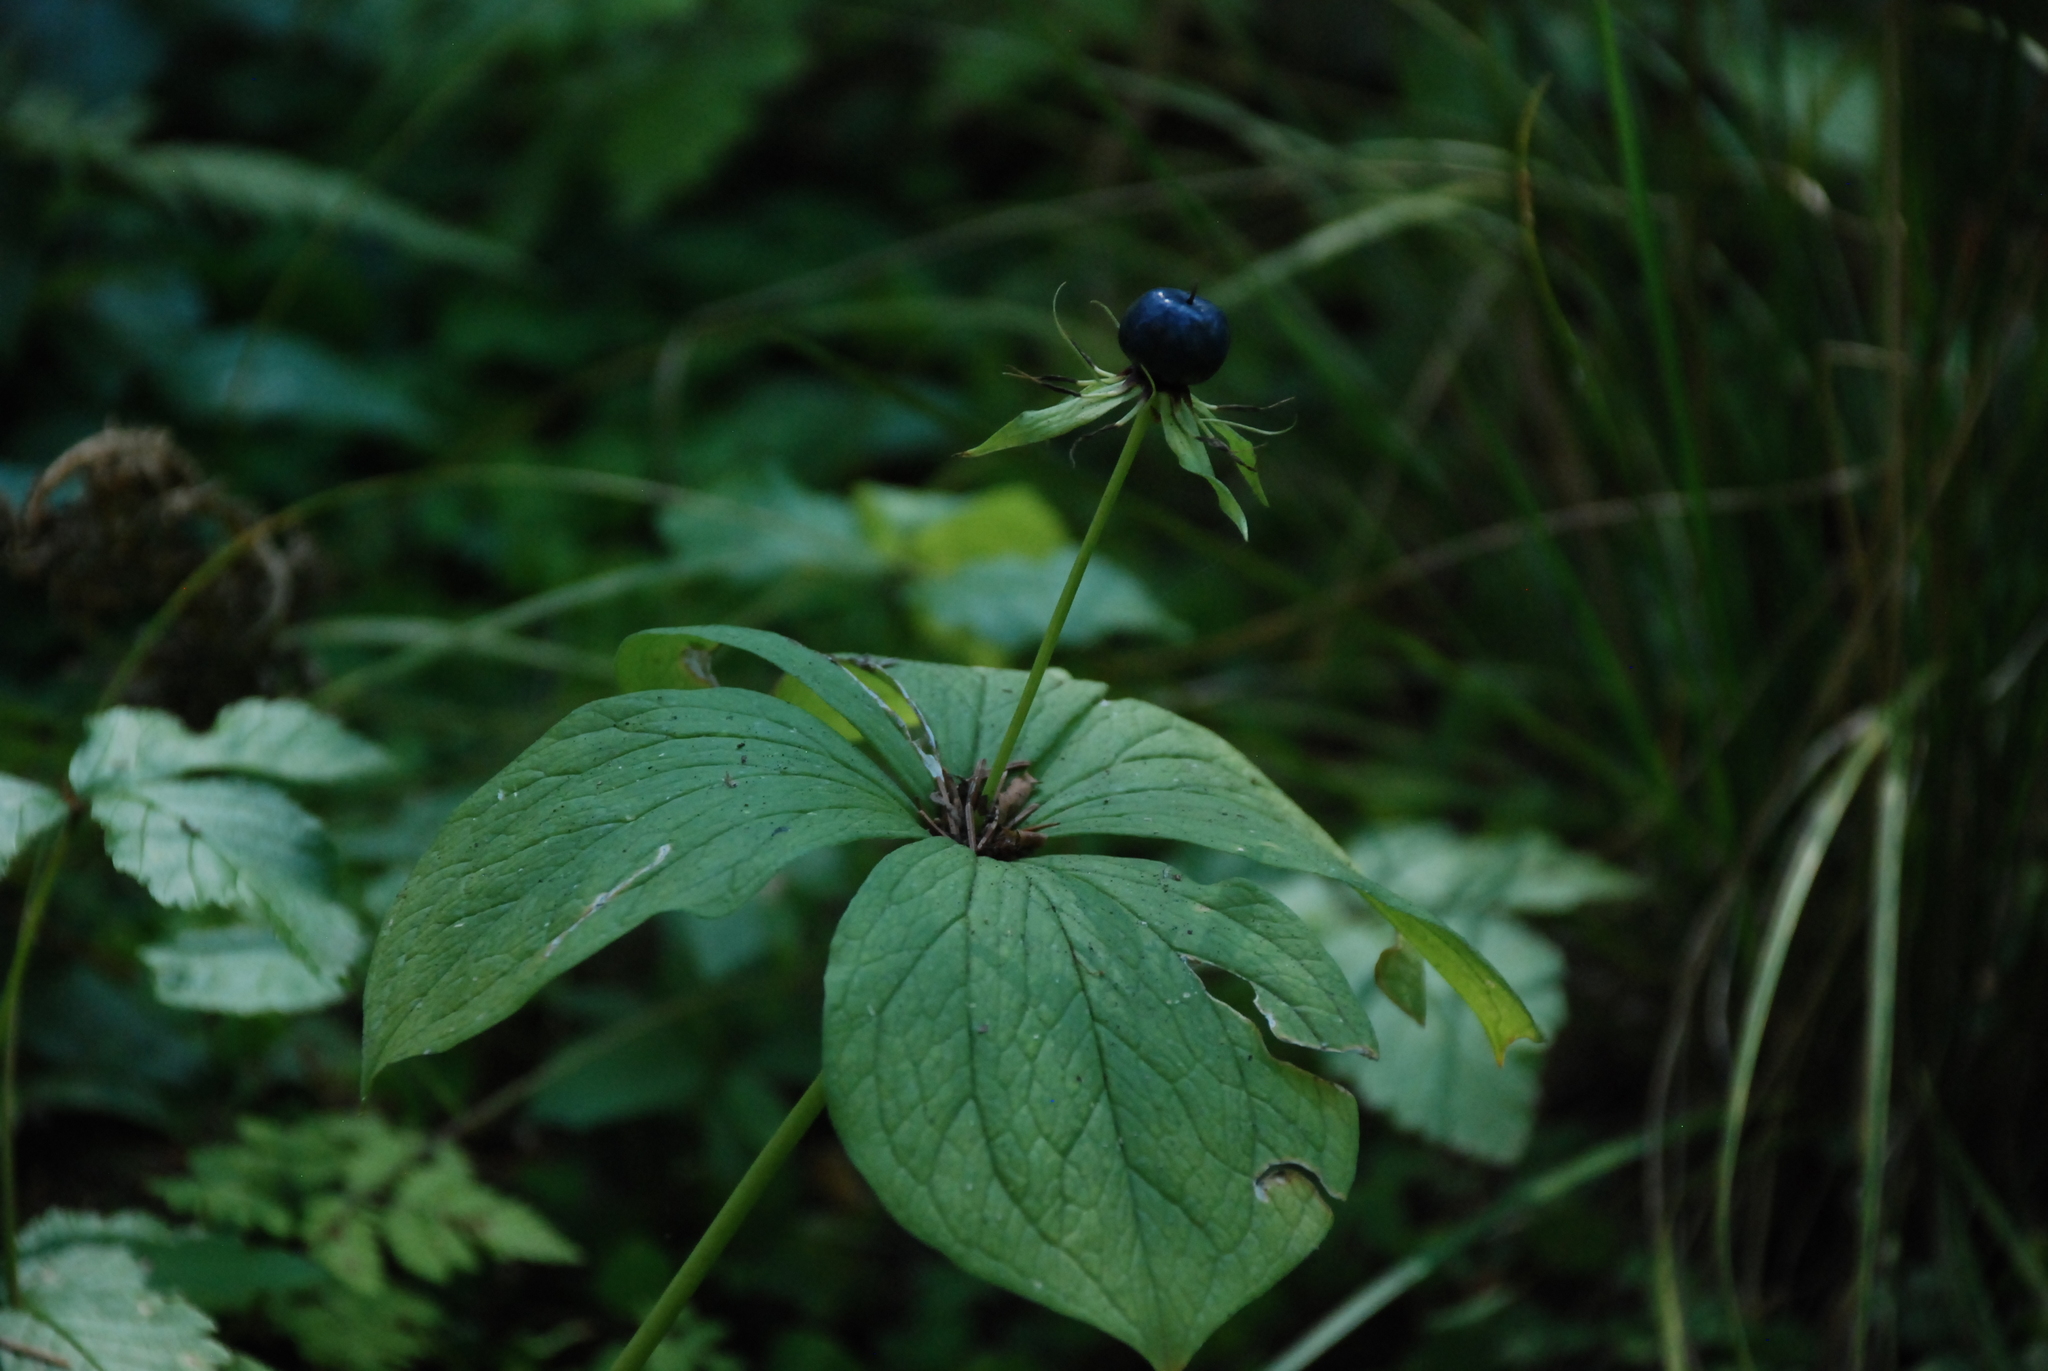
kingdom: Plantae
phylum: Tracheophyta
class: Liliopsida
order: Liliales
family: Melanthiaceae
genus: Paris
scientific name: Paris quadrifolia
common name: Herb-paris
